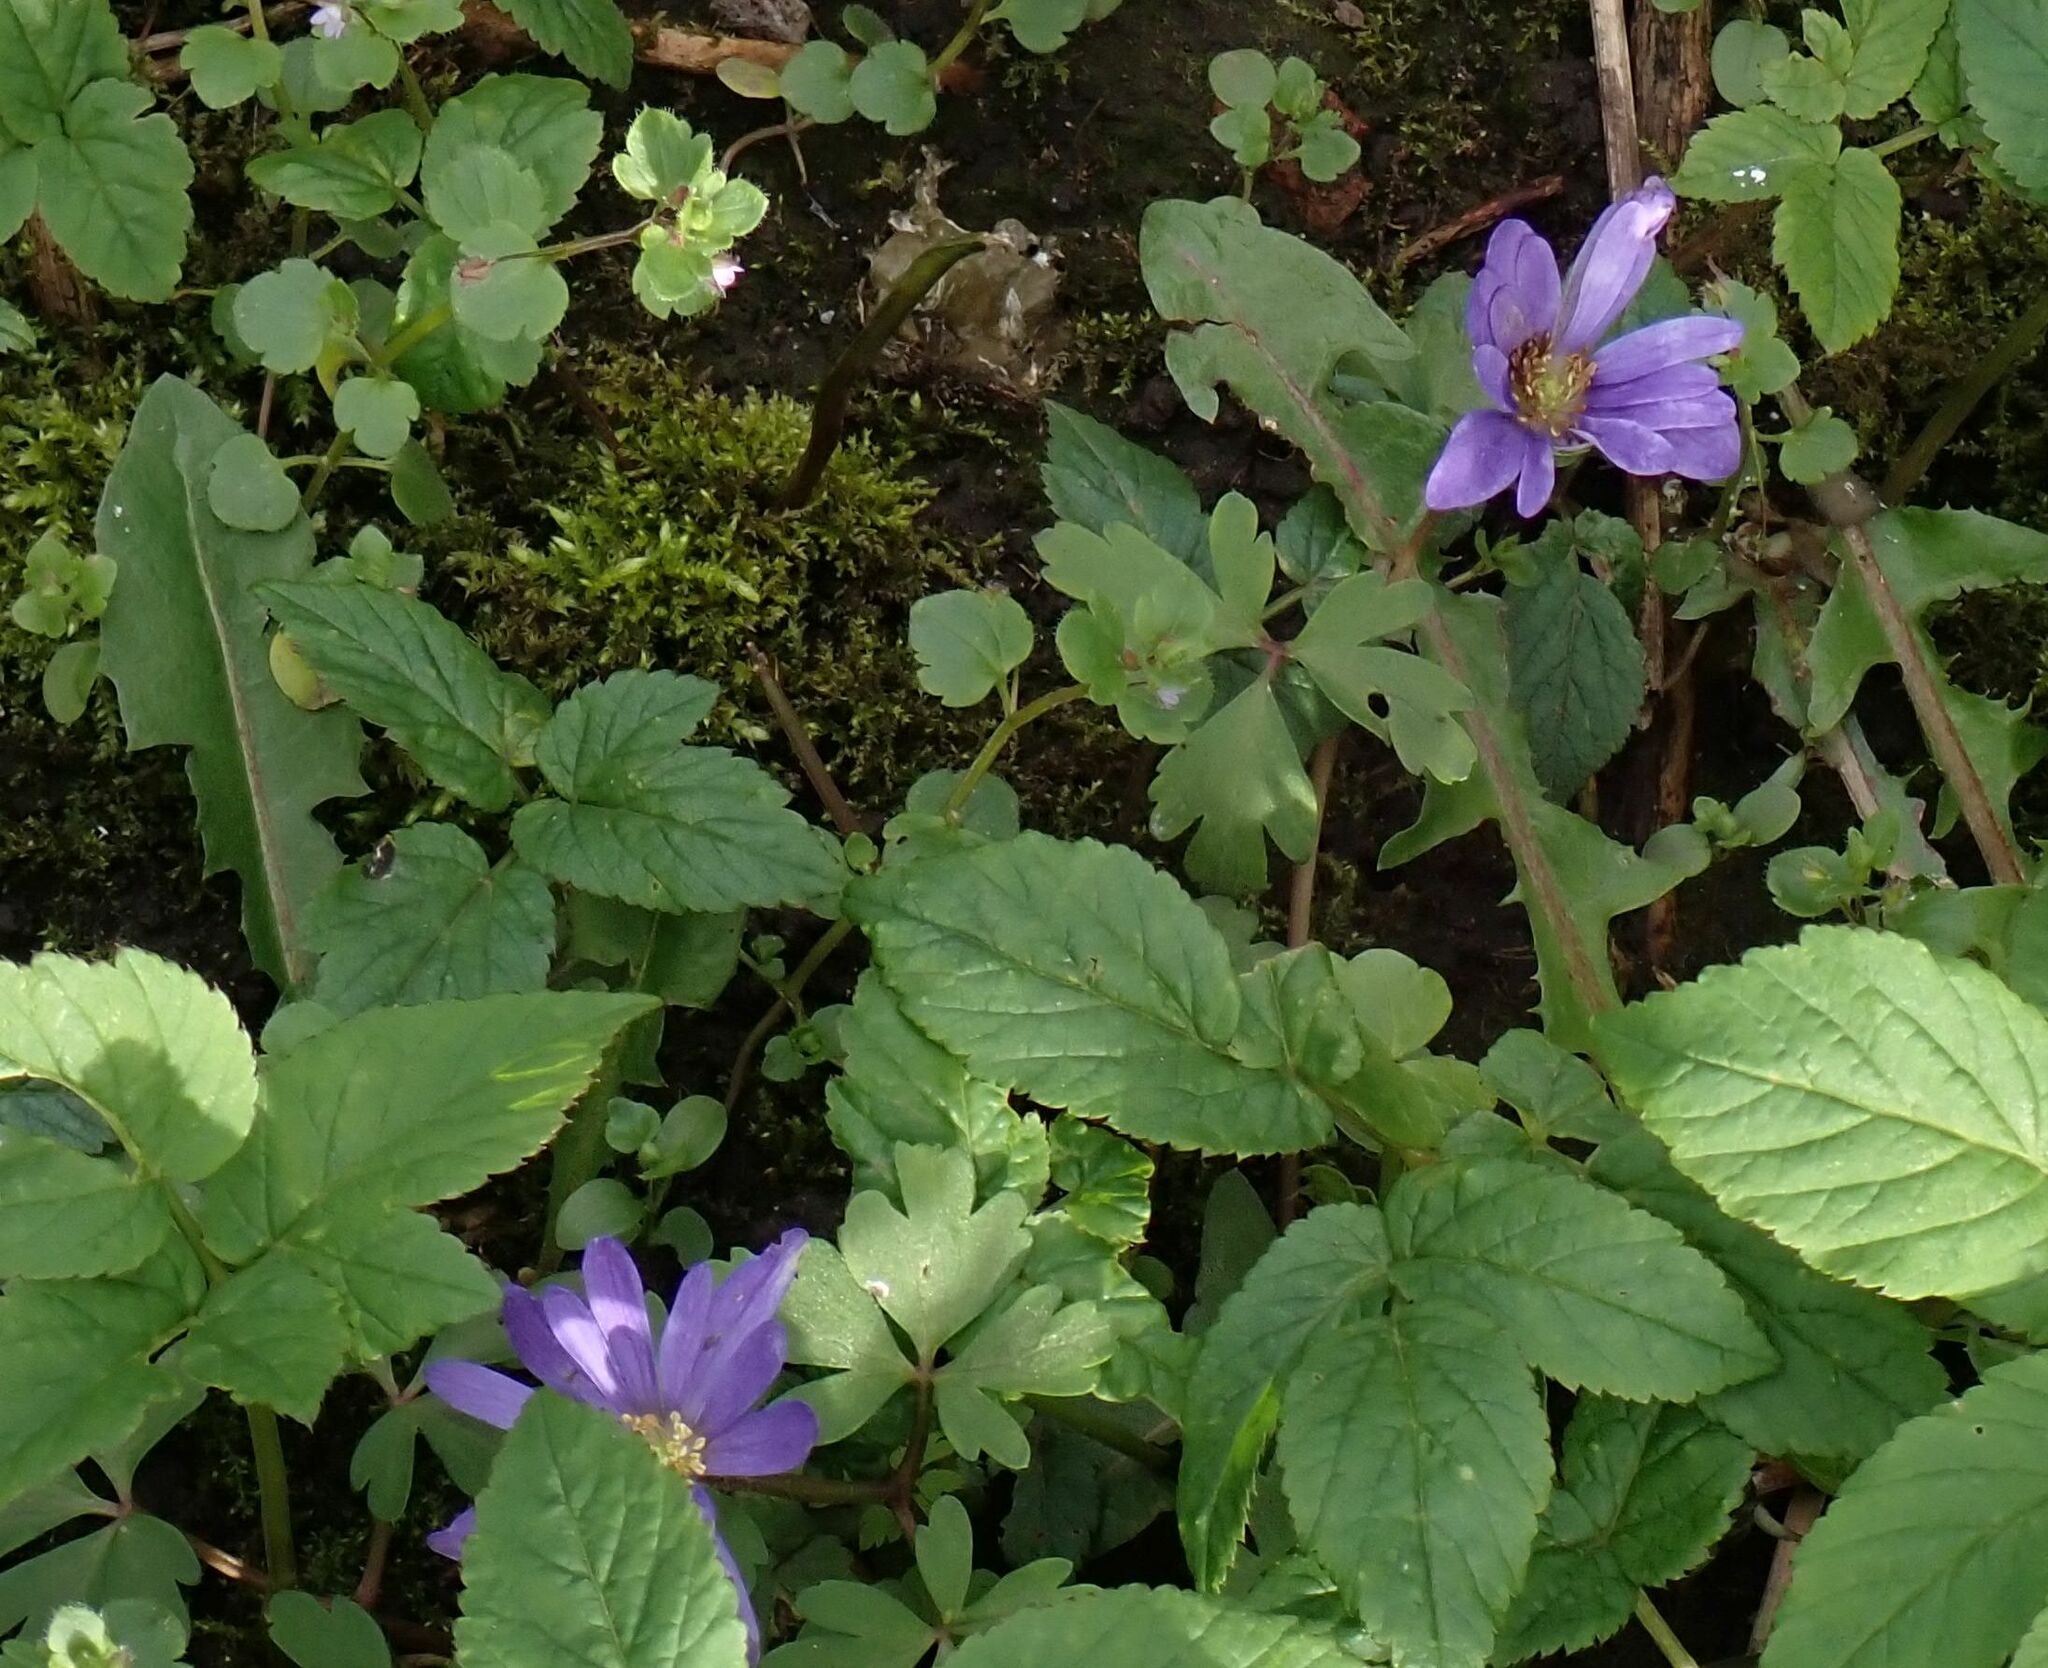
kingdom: Plantae
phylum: Tracheophyta
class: Magnoliopsida
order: Ranunculales
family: Ranunculaceae
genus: Anemone
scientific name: Anemone blanda
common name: Balkan anemone
